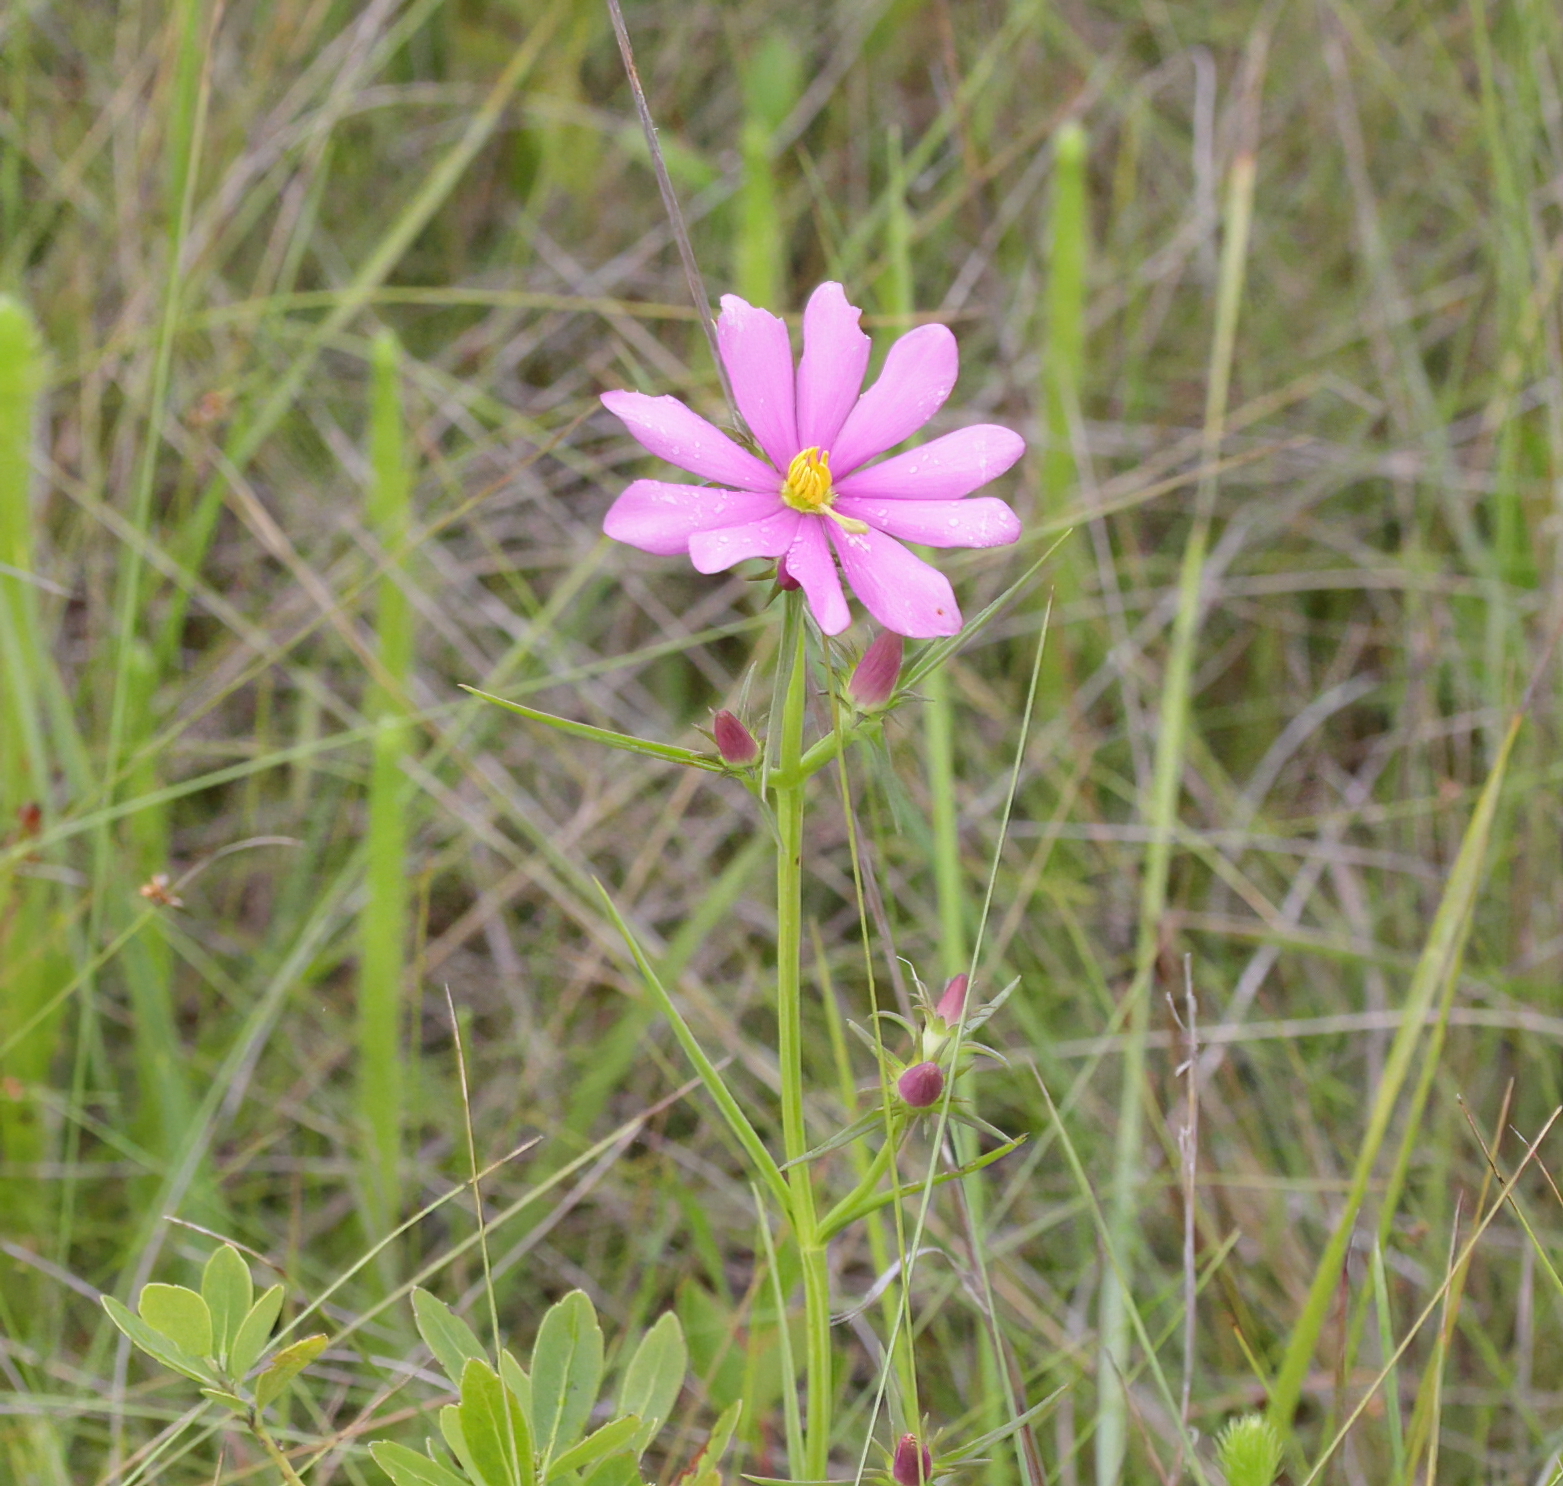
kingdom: Plantae
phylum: Tracheophyta
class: Magnoliopsida
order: Gentianales
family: Gentianaceae
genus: Sabatia
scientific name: Sabatia gentianoides
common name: Pinewoods rose-gentian
